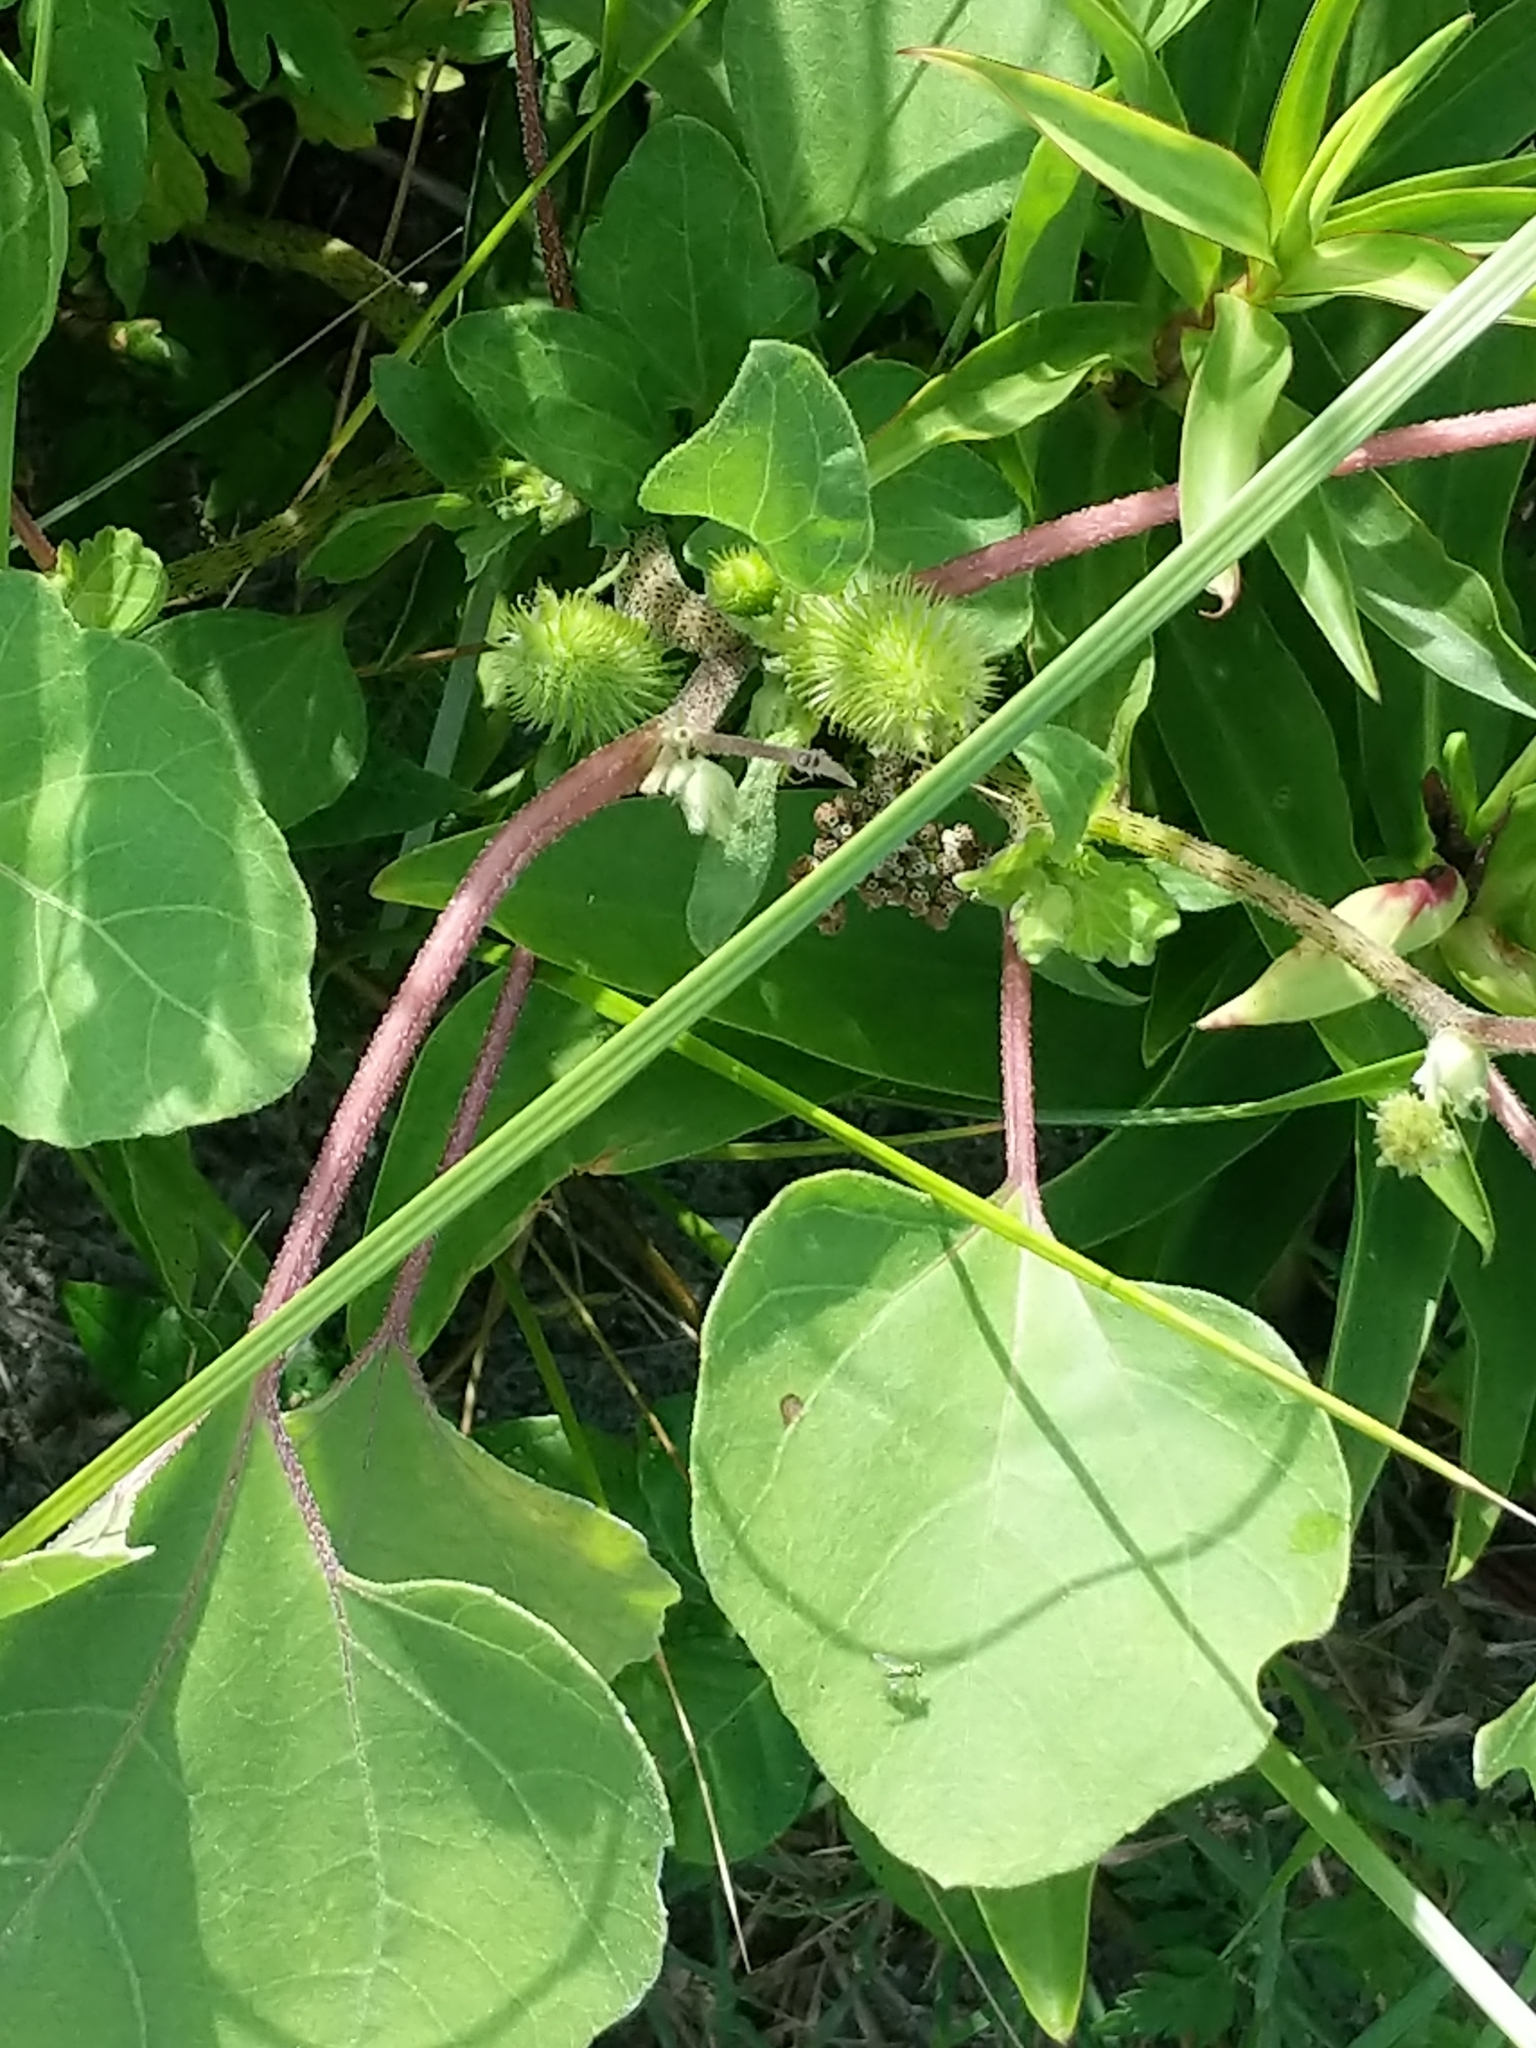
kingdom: Plantae
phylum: Tracheophyta
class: Magnoliopsida
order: Asterales
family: Asteraceae
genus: Xanthium
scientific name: Xanthium strumarium
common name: Rough cocklebur
